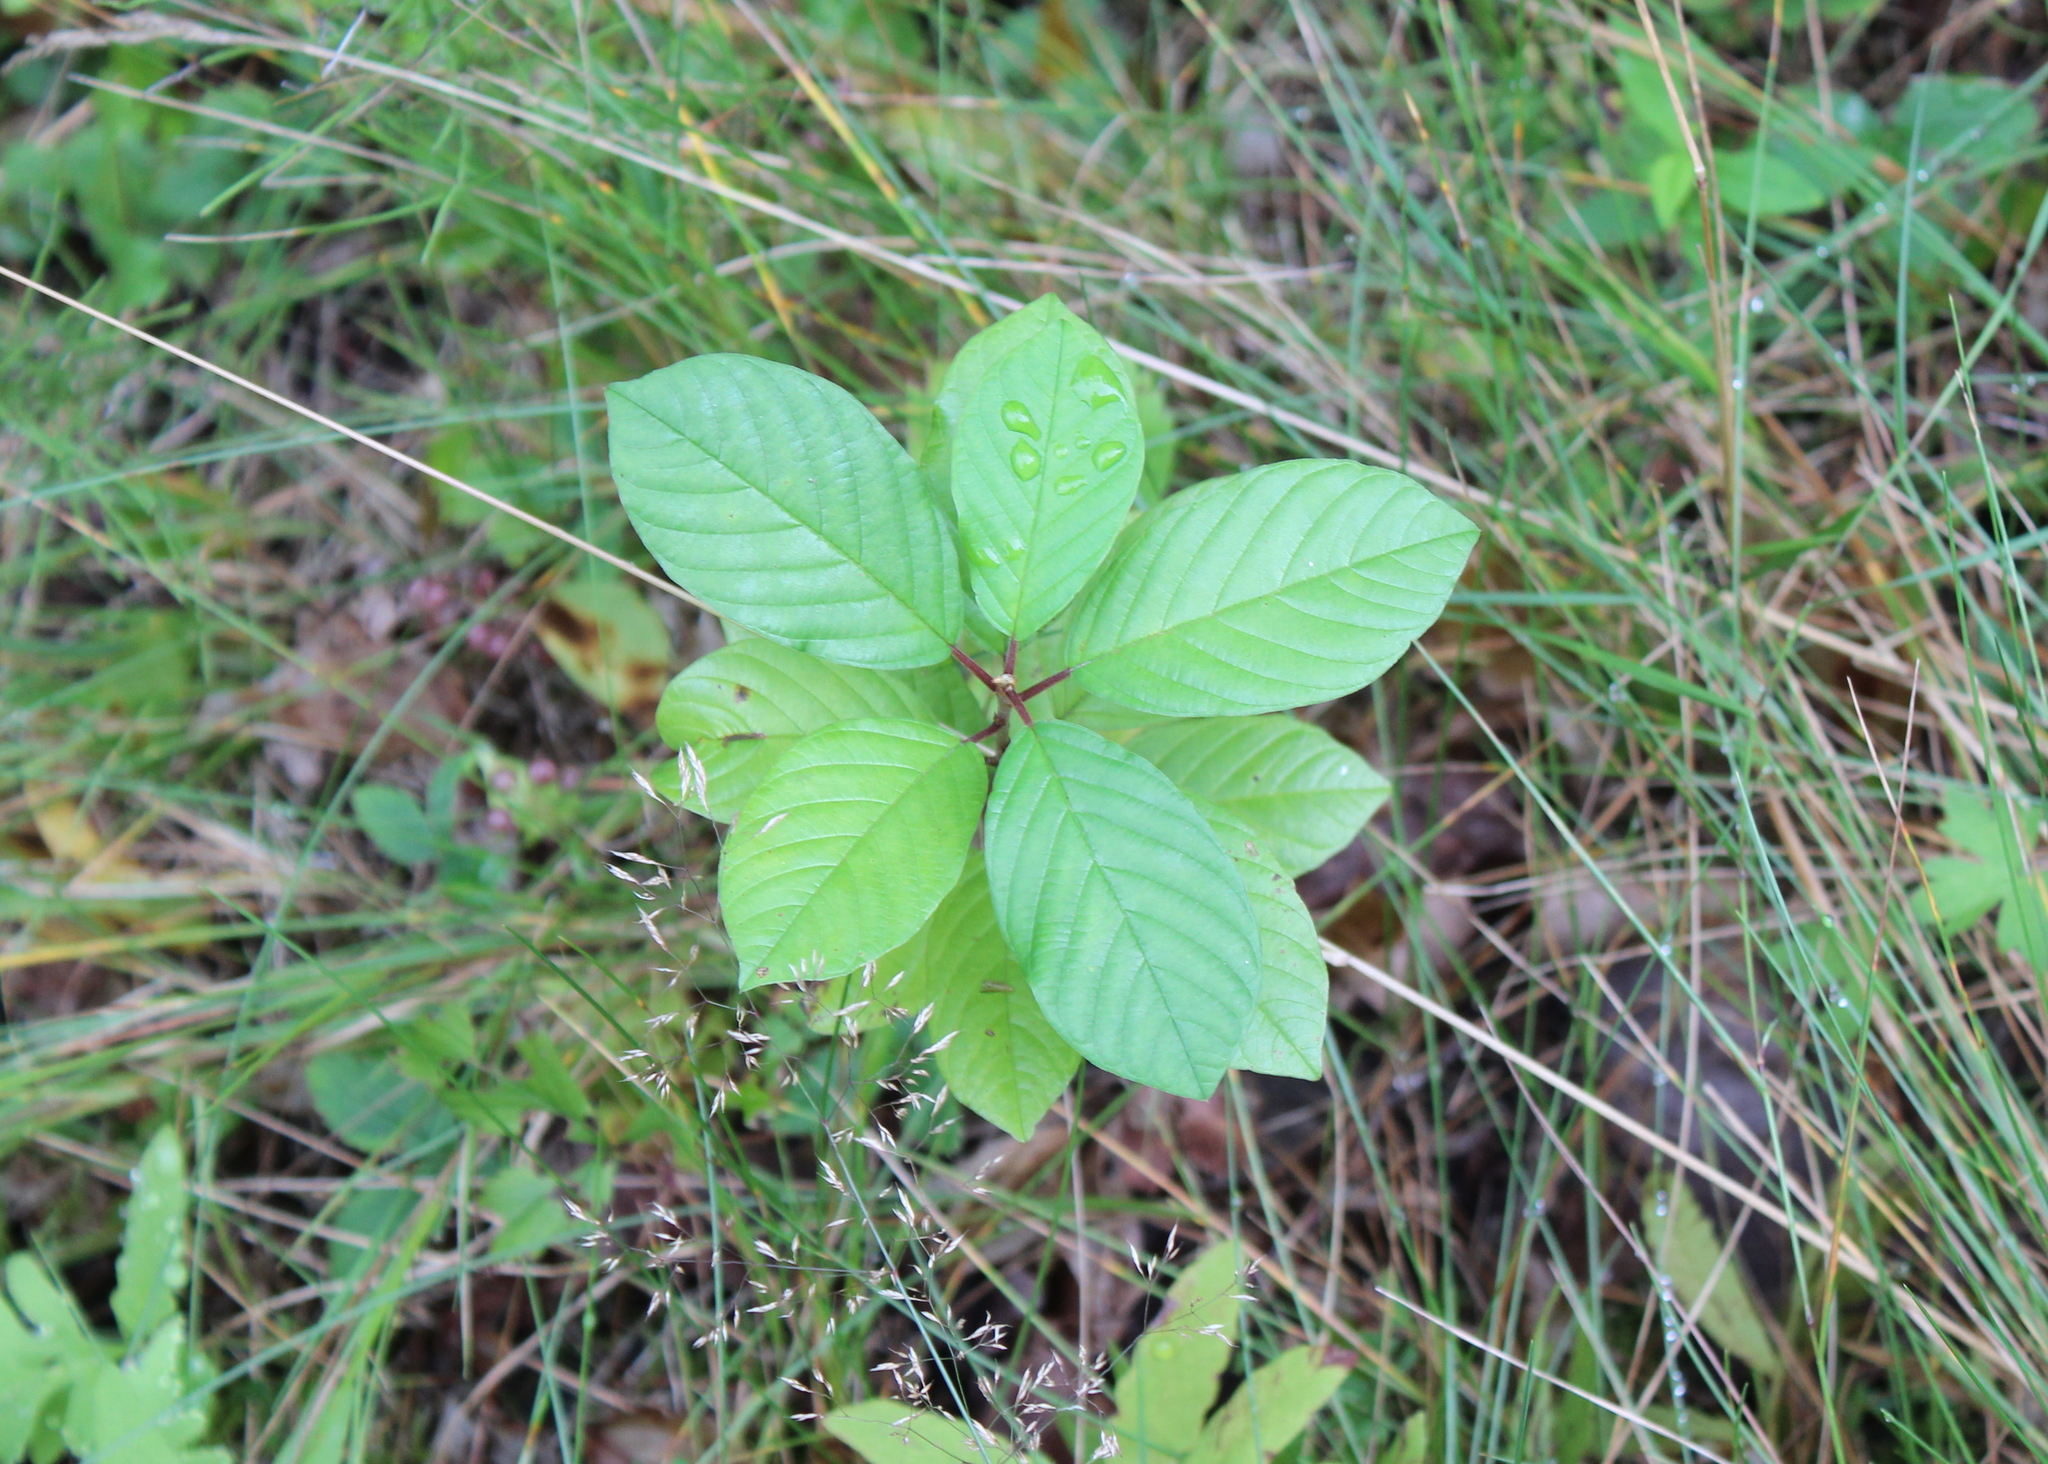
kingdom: Plantae
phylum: Tracheophyta
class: Magnoliopsida
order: Rosales
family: Rhamnaceae
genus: Frangula
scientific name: Frangula alnus
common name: Alder buckthorn
